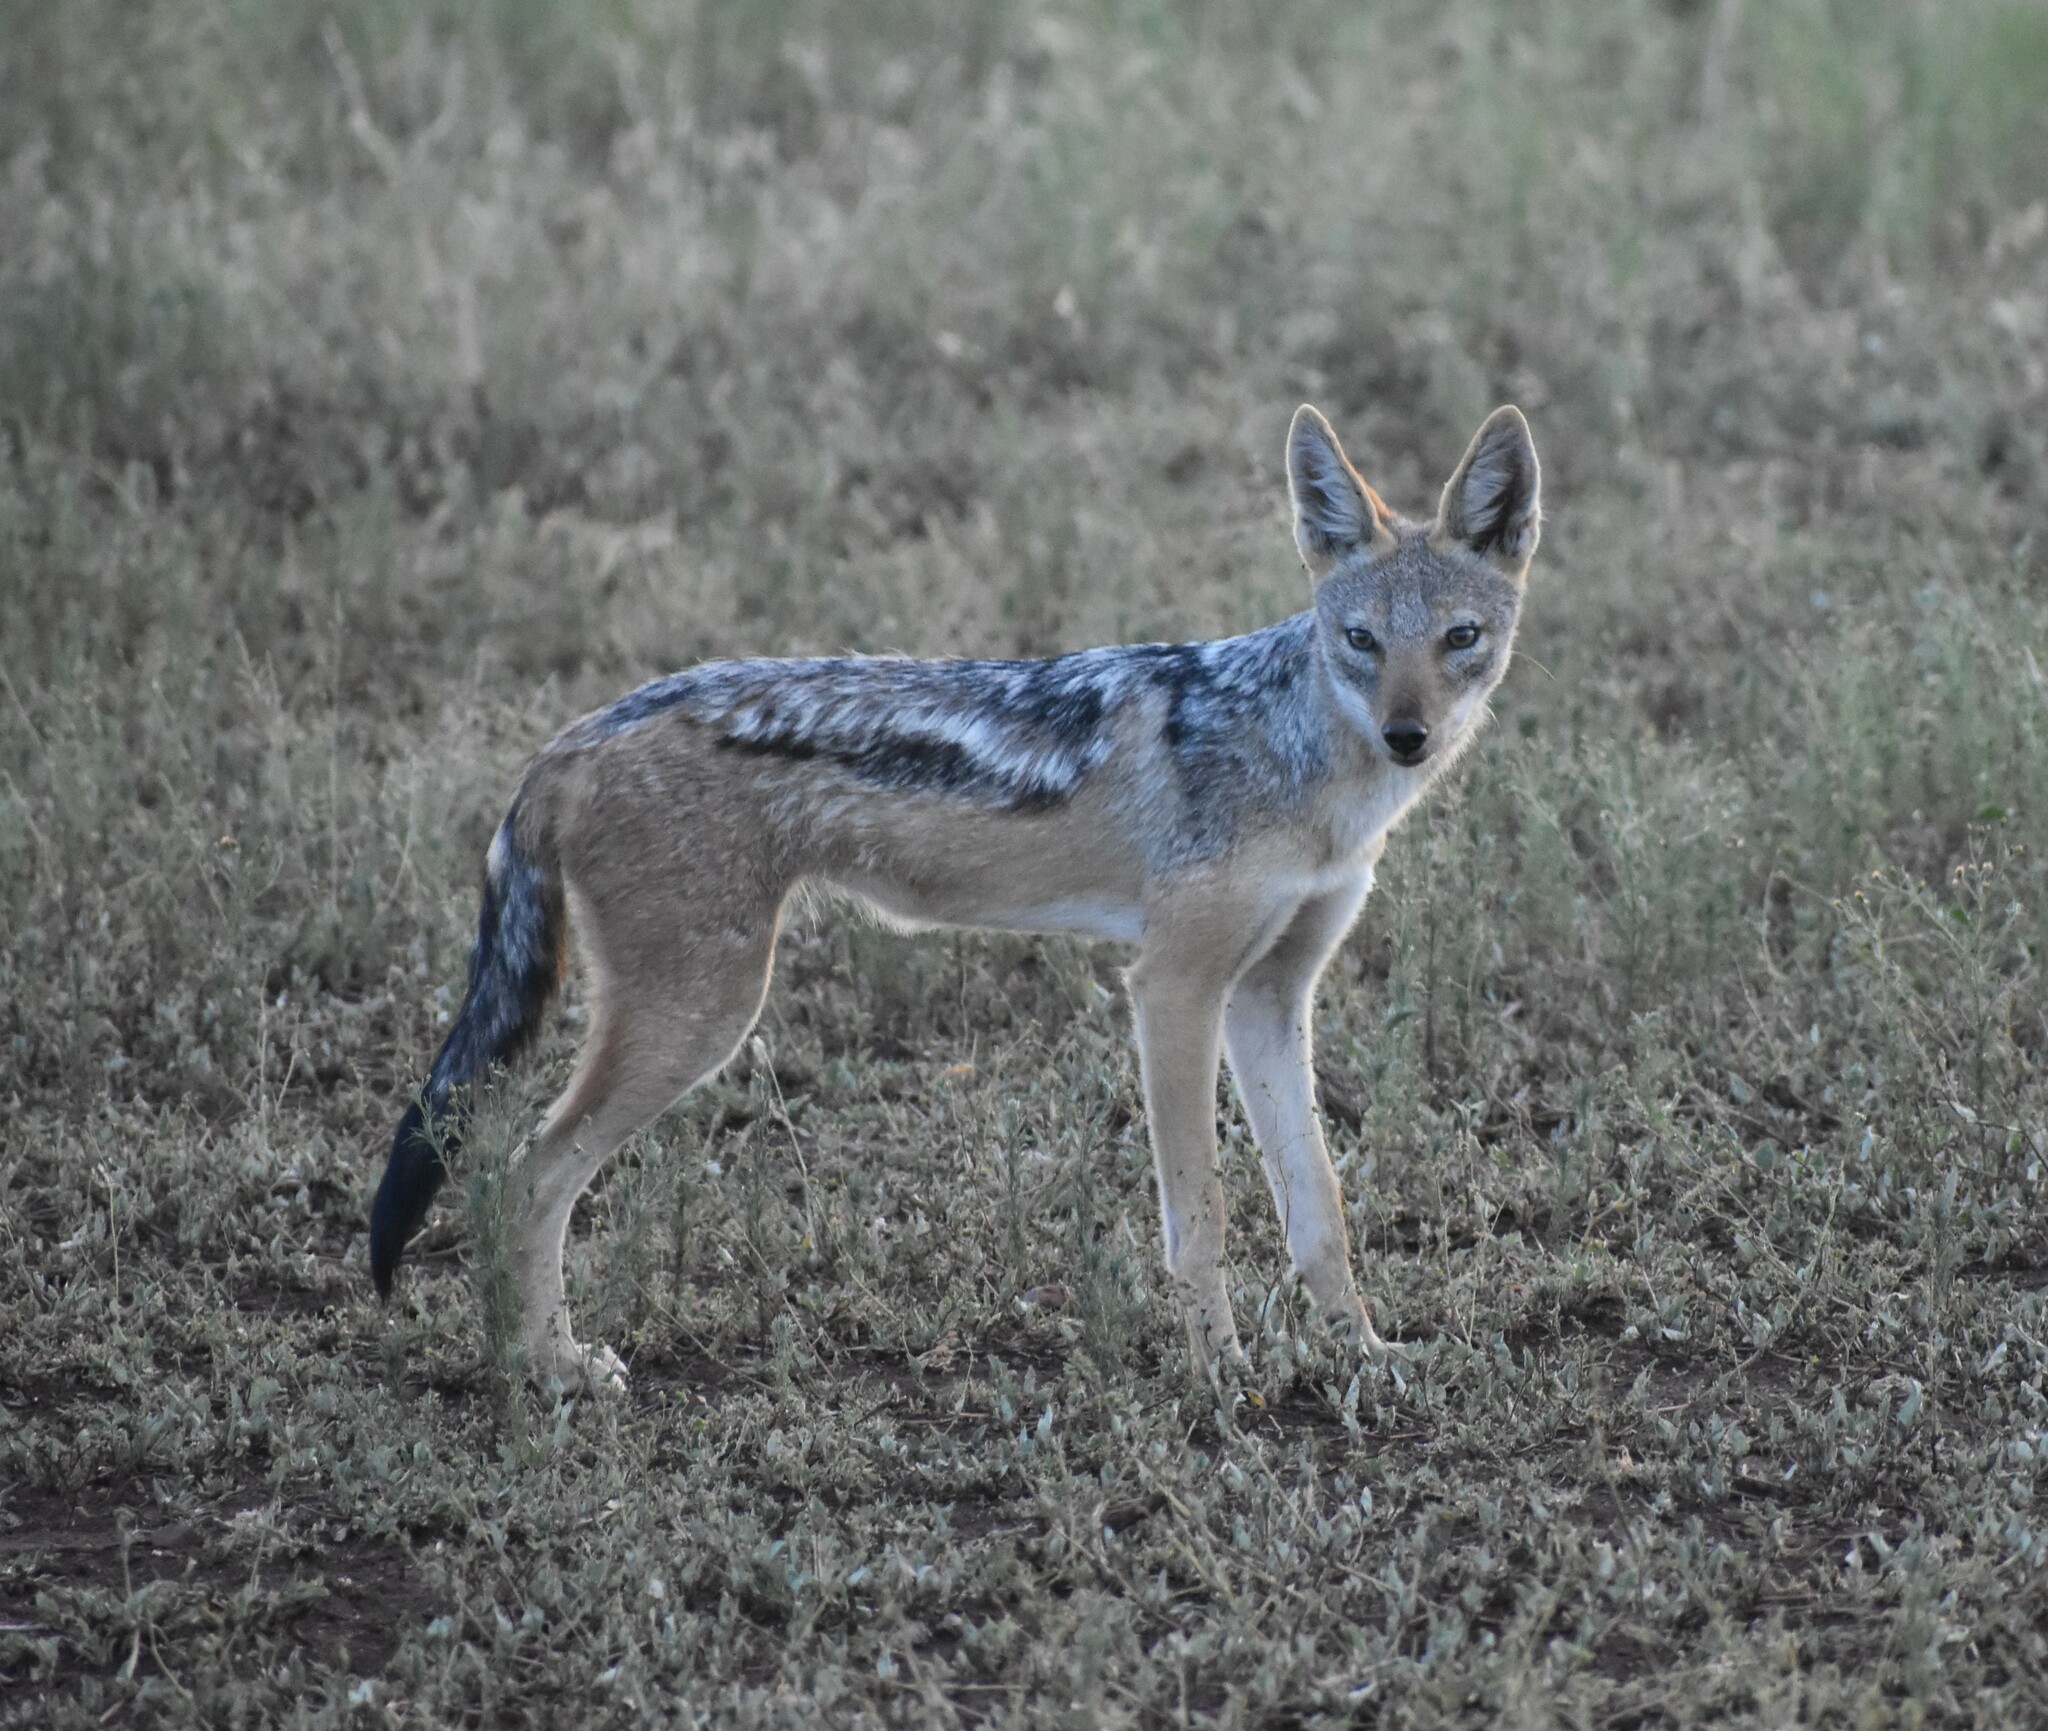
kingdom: Animalia
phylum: Chordata
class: Mammalia
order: Carnivora
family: Canidae
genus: Lupulella
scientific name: Lupulella
